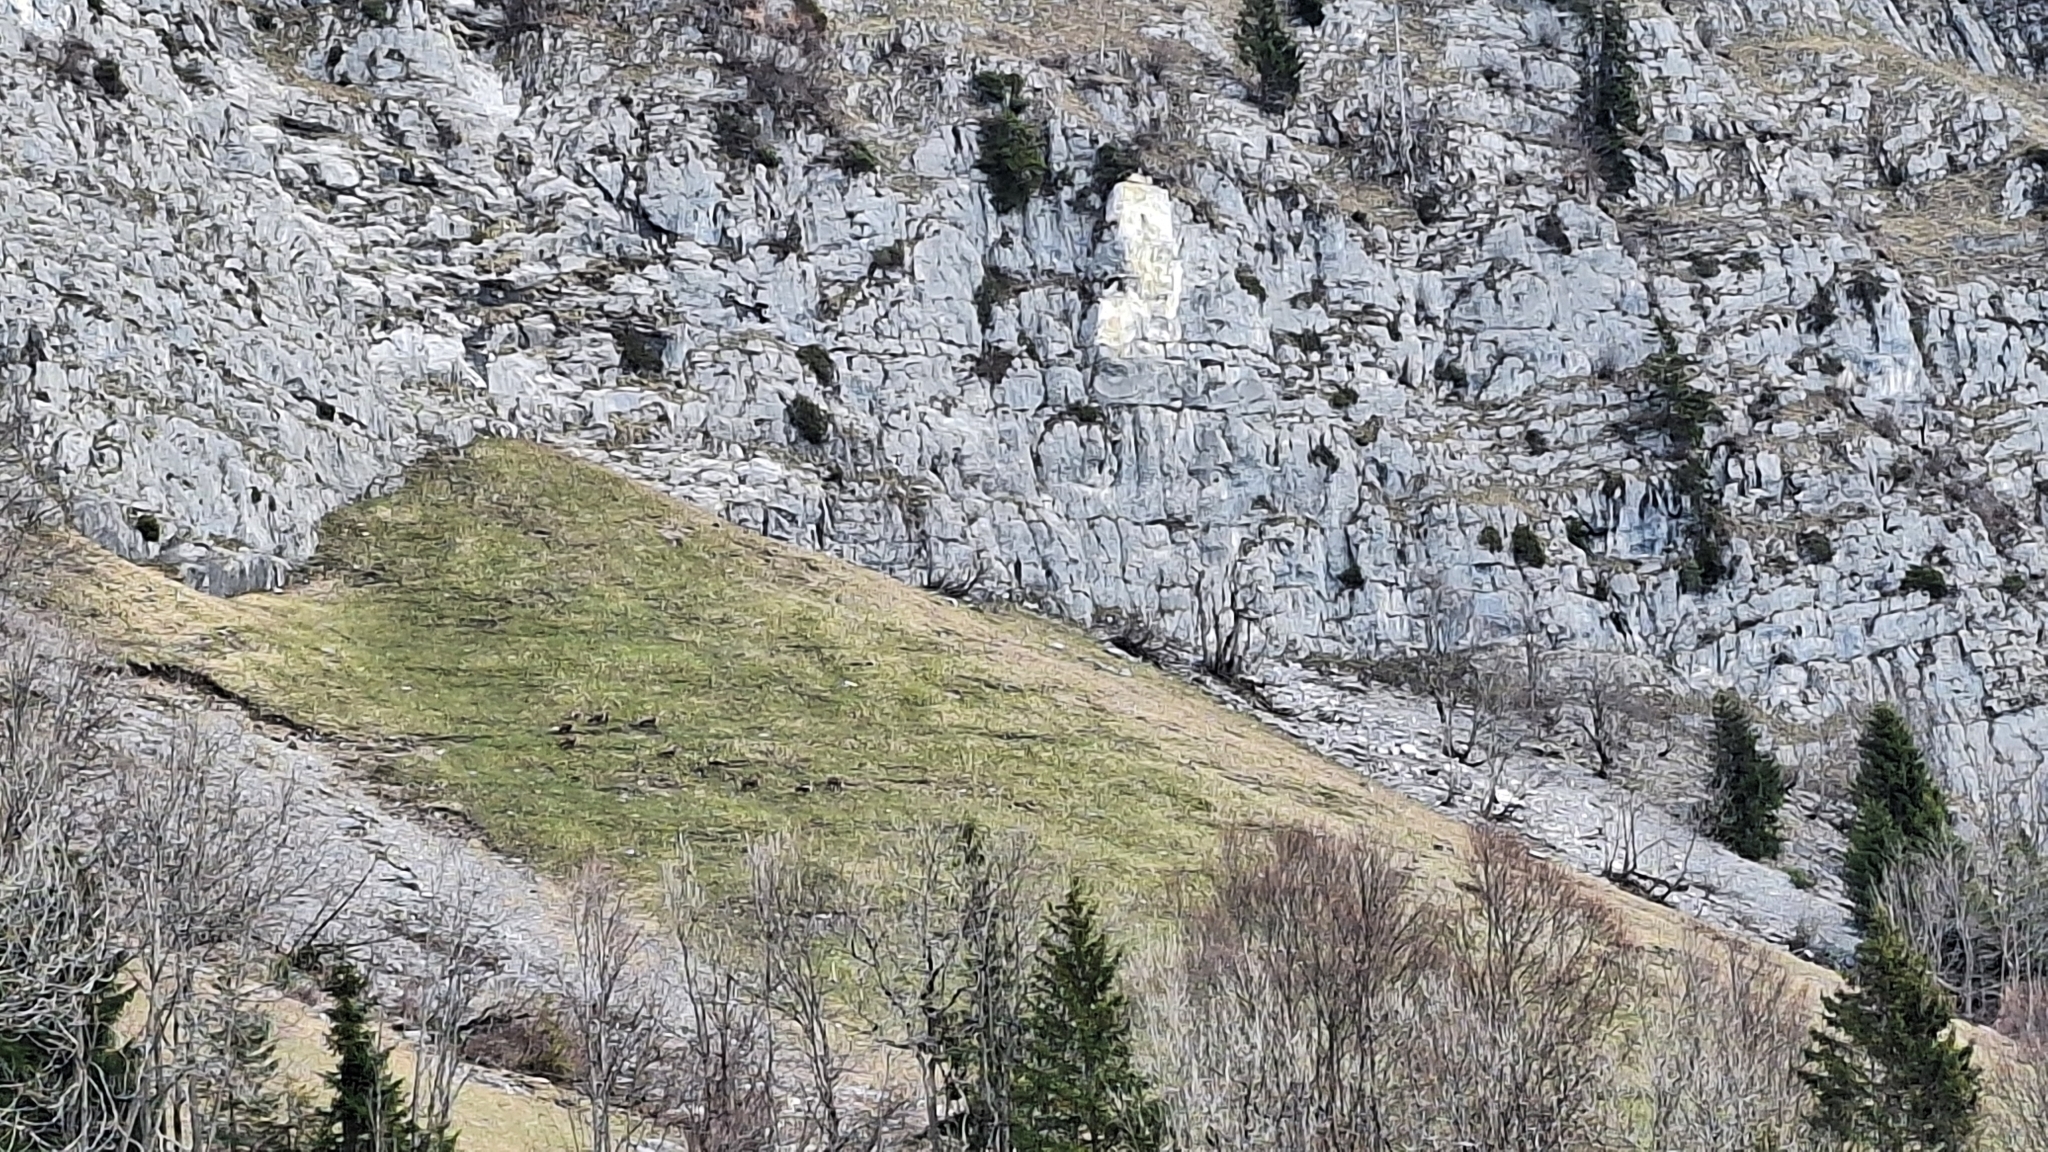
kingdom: Animalia
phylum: Chordata
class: Mammalia
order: Artiodactyla
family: Bovidae
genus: Rupicapra
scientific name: Rupicapra rupicapra
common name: Chamois
